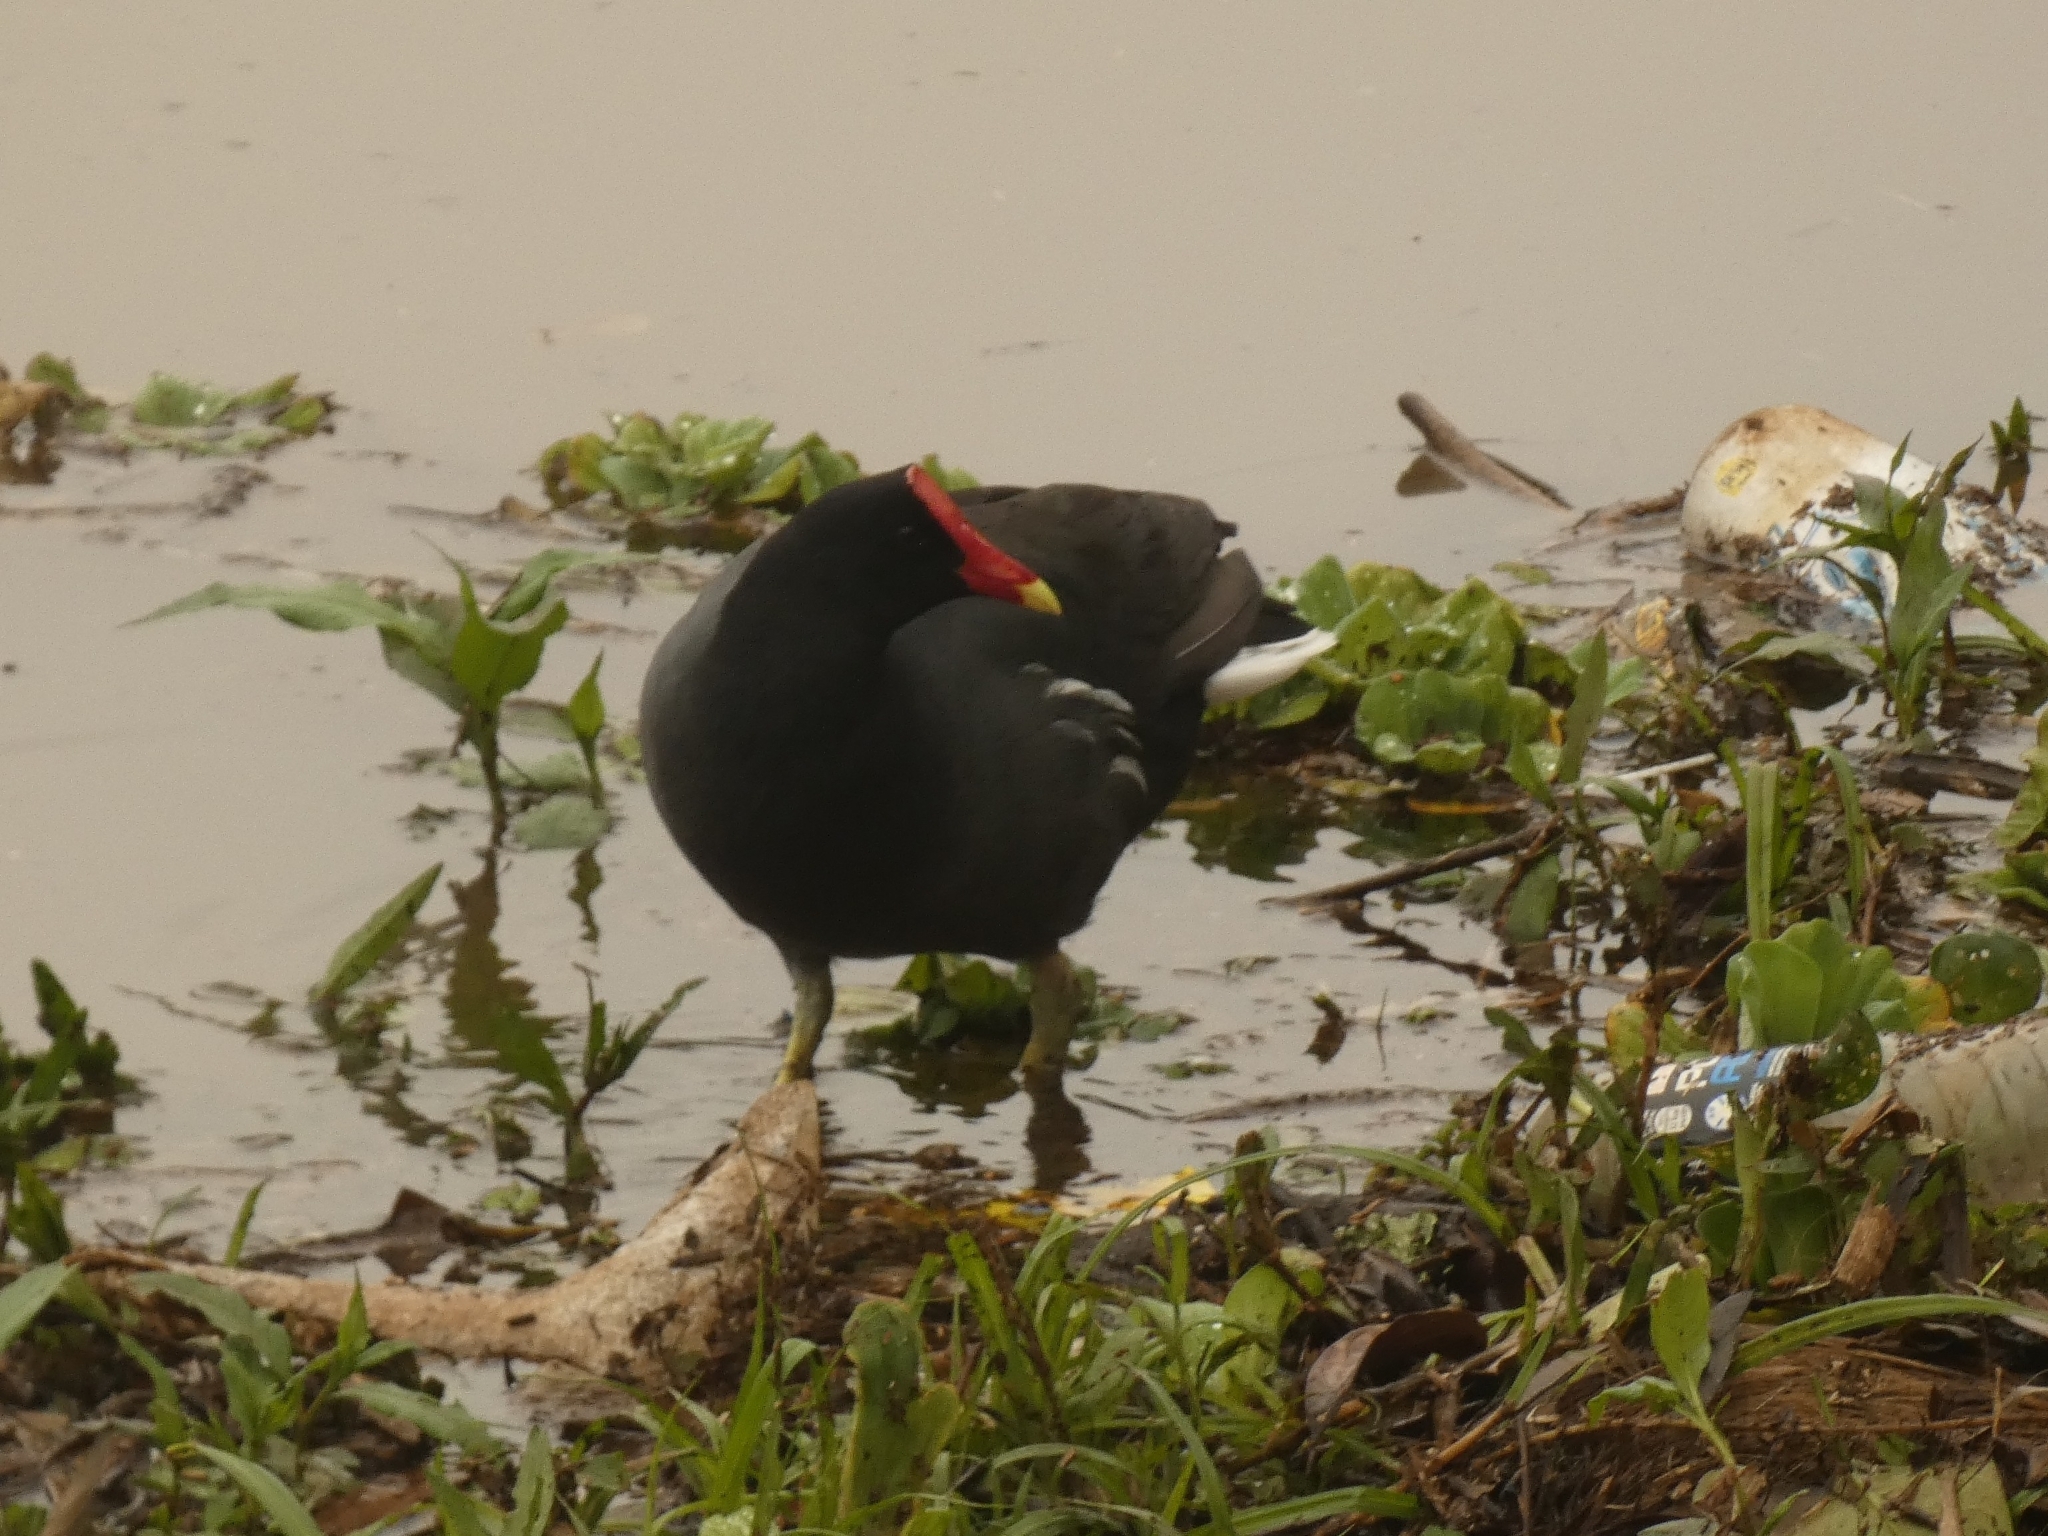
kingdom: Animalia
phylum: Chordata
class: Aves
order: Gruiformes
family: Rallidae
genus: Gallinula
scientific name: Gallinula chloropus
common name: Common moorhen
